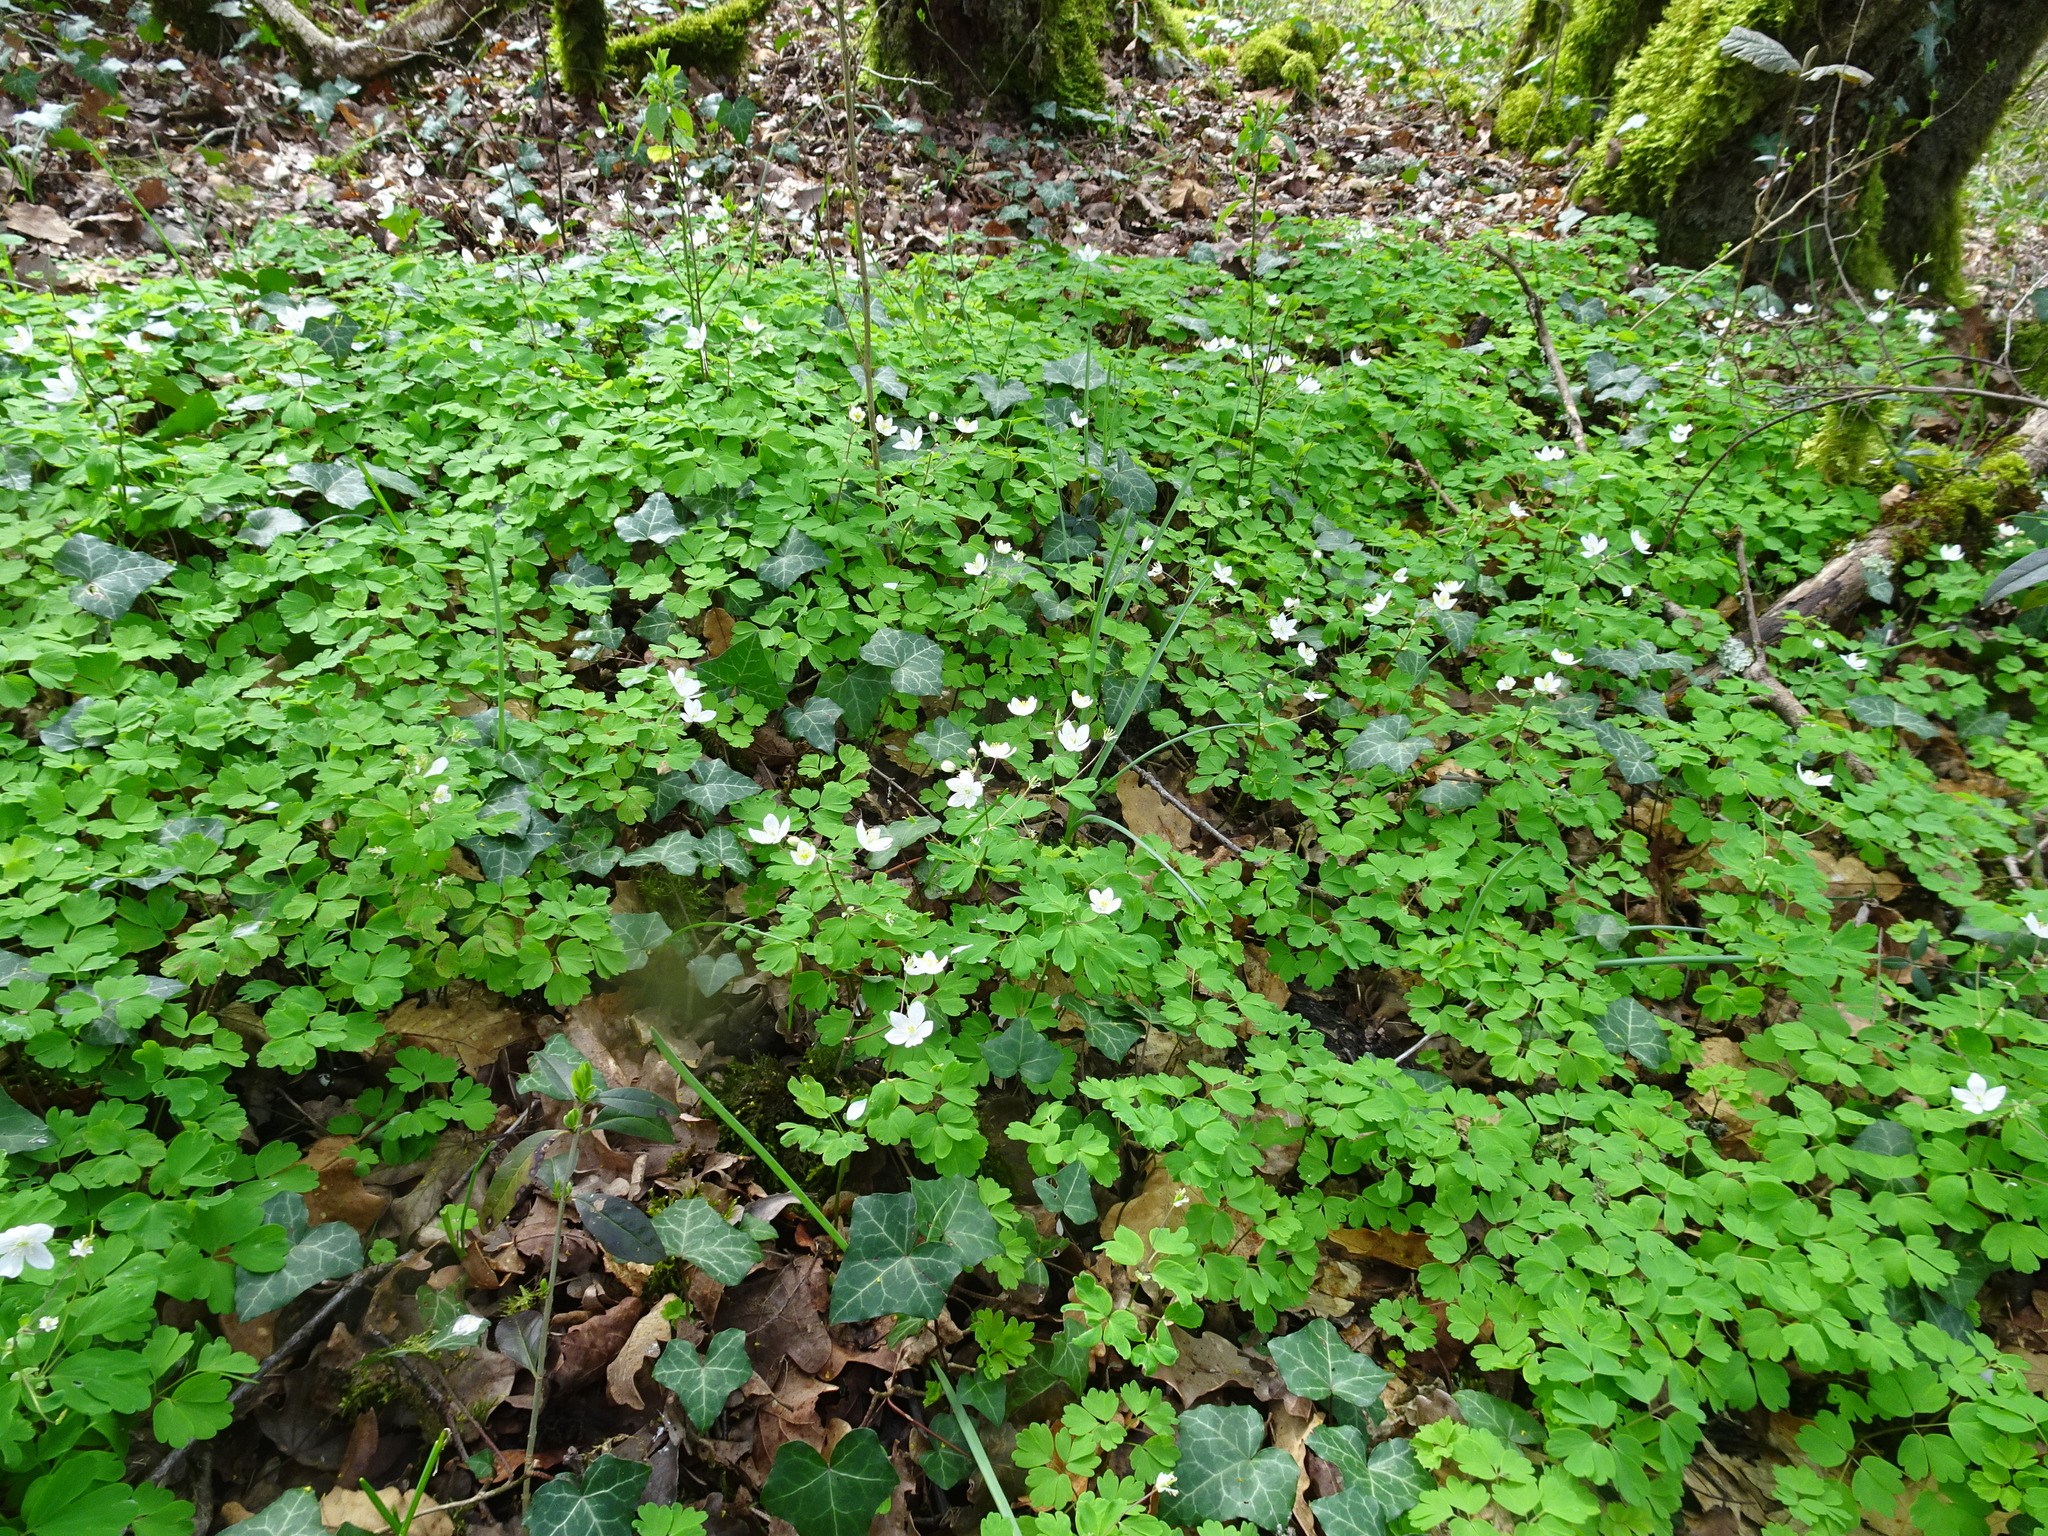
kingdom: Plantae
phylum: Tracheophyta
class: Magnoliopsida
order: Ranunculales
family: Ranunculaceae
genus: Isopyrum
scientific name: Isopyrum thalictroides
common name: Isopyrum
